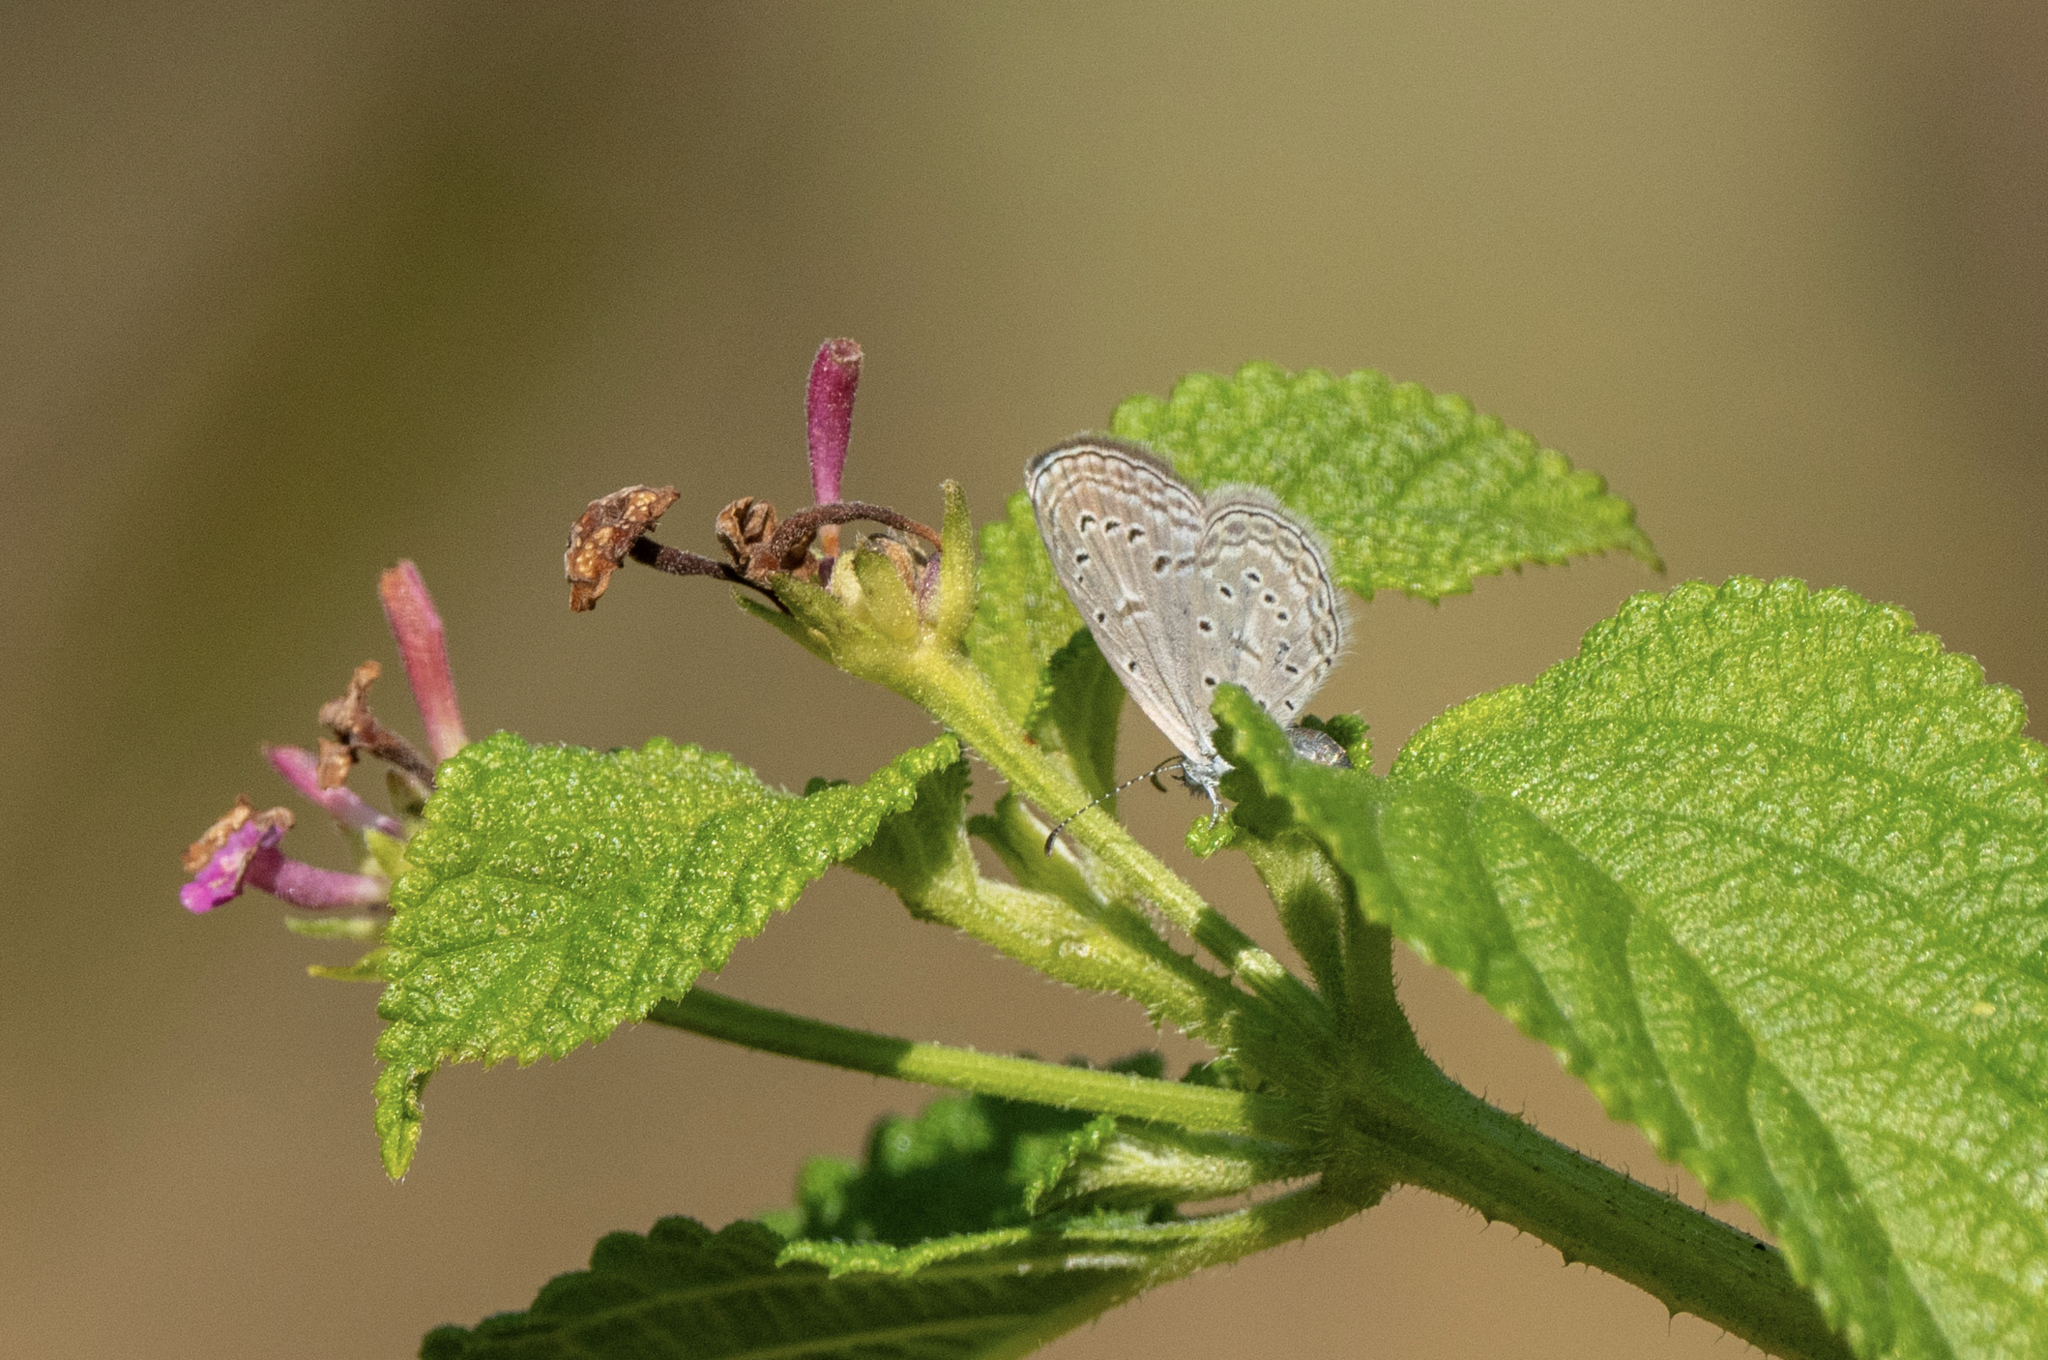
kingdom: Animalia
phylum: Arthropoda
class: Insecta
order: Lepidoptera
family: Lycaenidae
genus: Zizula
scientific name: Zizula hylax
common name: Gaika blue
